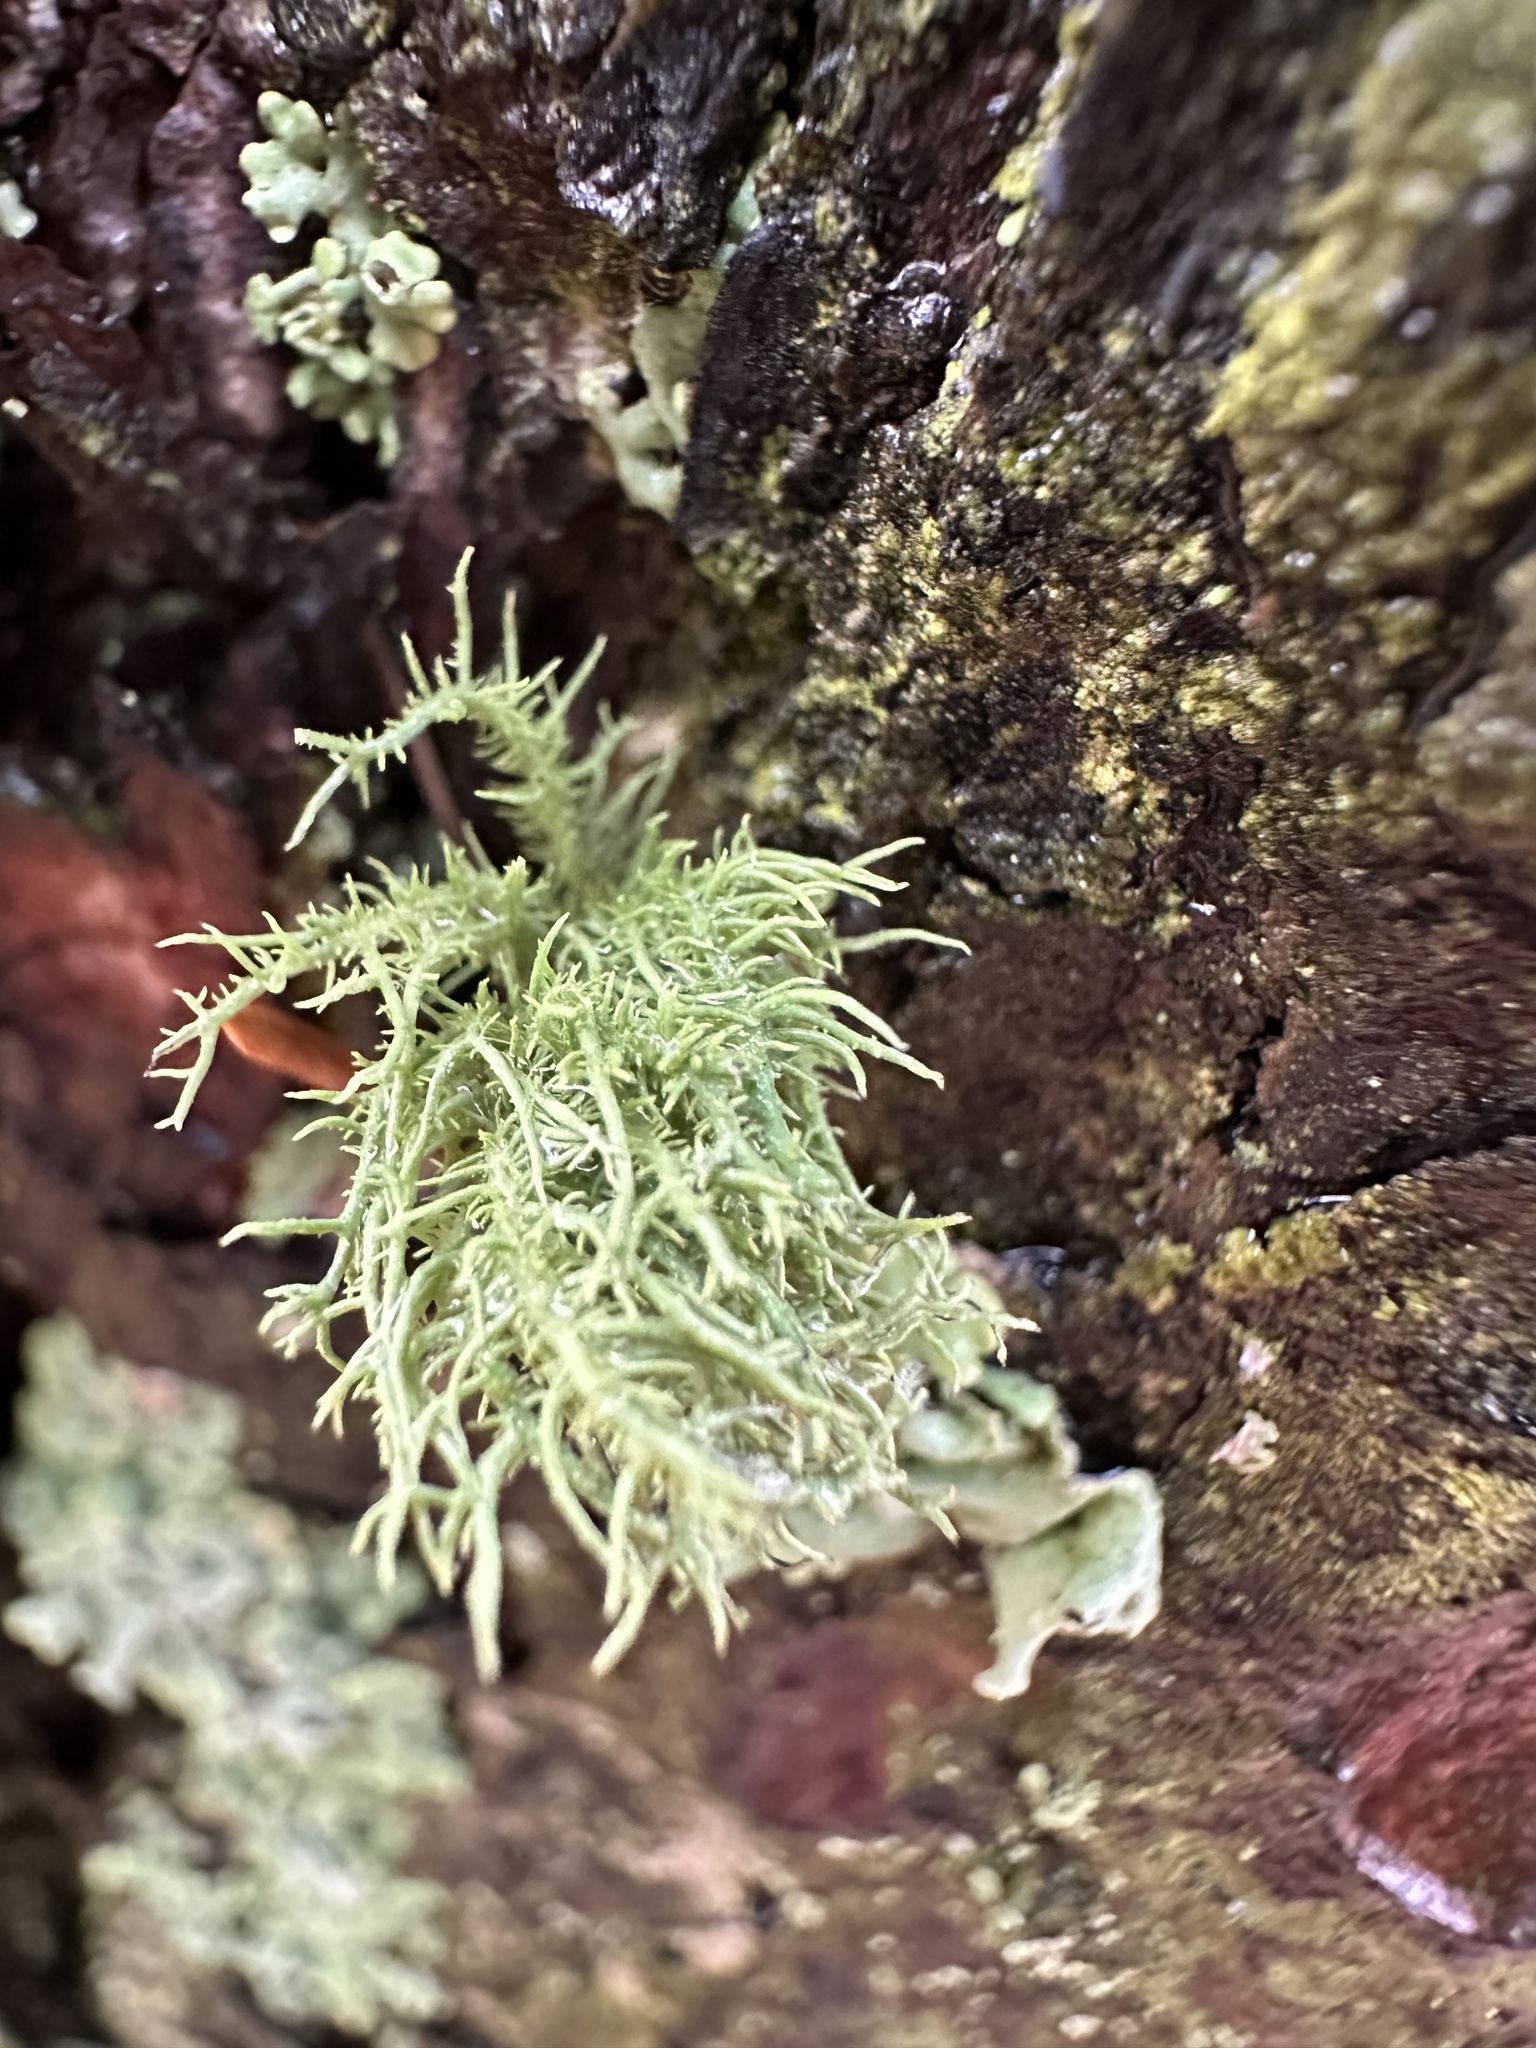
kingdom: Fungi
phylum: Ascomycota
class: Lecanoromycetes
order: Lecanorales
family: Parmeliaceae
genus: Usnea
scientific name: Usnea hirta
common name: Bristly beard lichen
